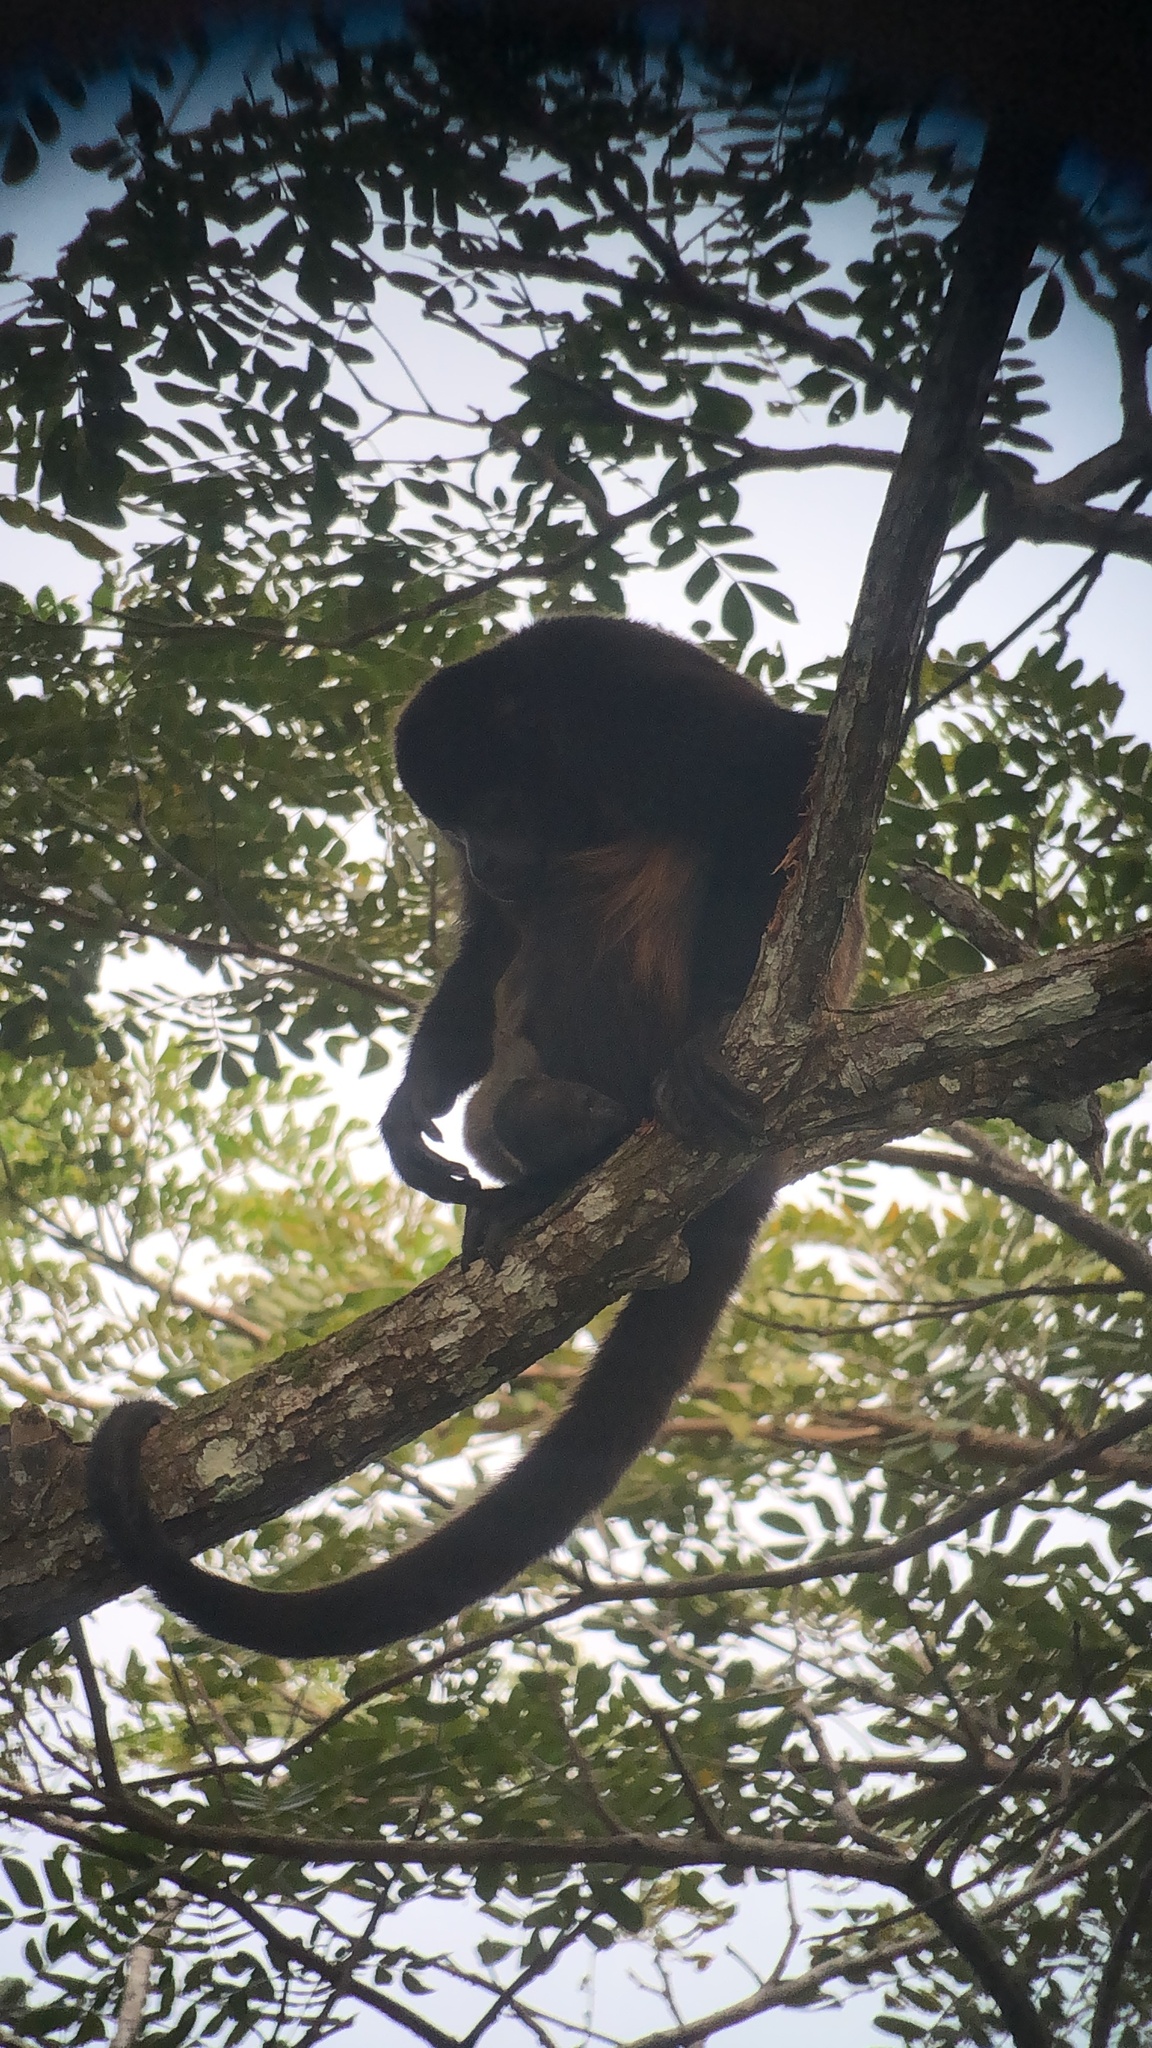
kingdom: Animalia
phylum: Chordata
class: Mammalia
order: Primates
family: Atelidae
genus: Alouatta
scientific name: Alouatta palliata
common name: Mantled howler
